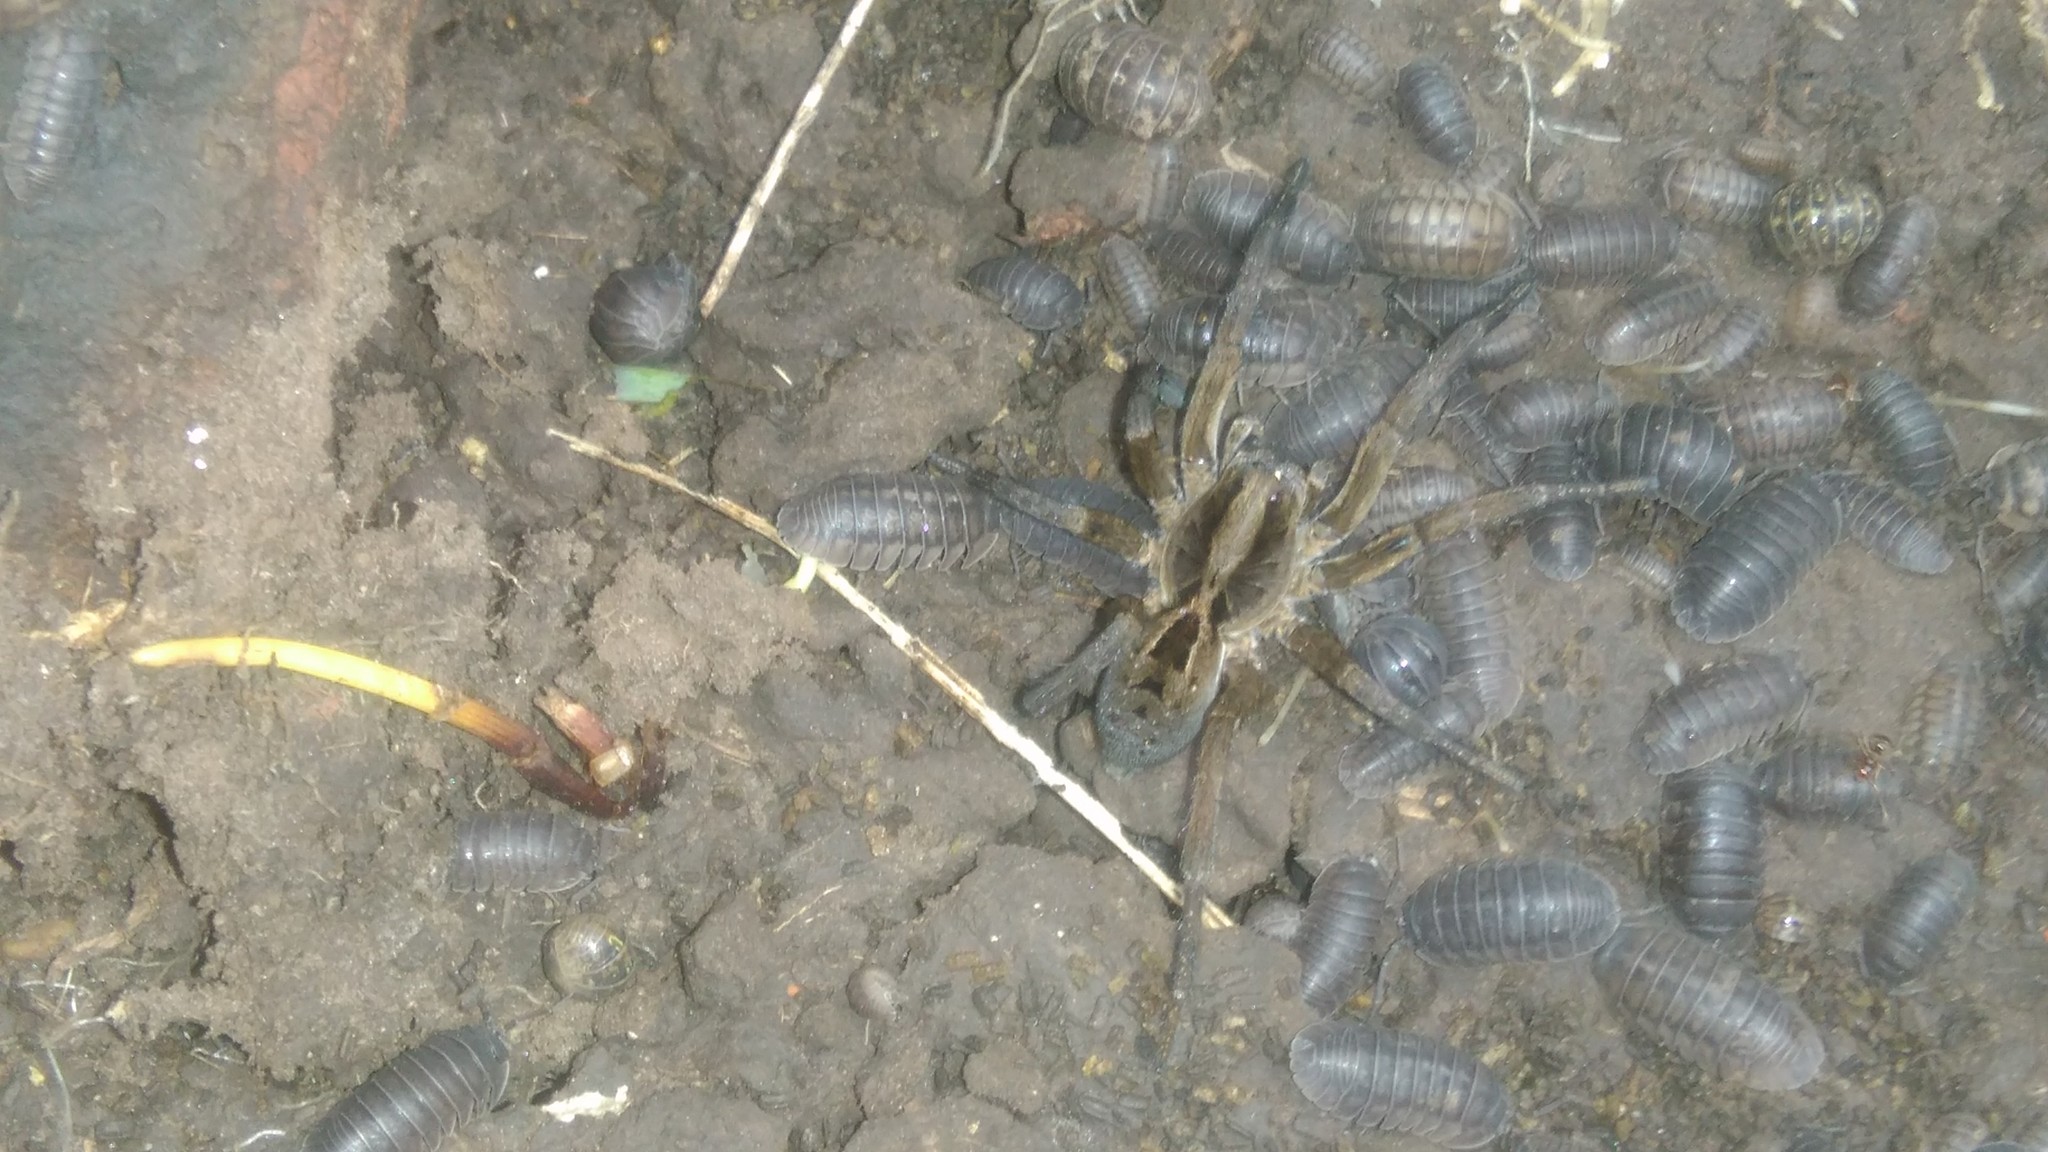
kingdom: Animalia
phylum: Arthropoda
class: Arachnida
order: Araneae
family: Lycosidae
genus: Lycosa
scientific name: Lycosa erythrognatha
